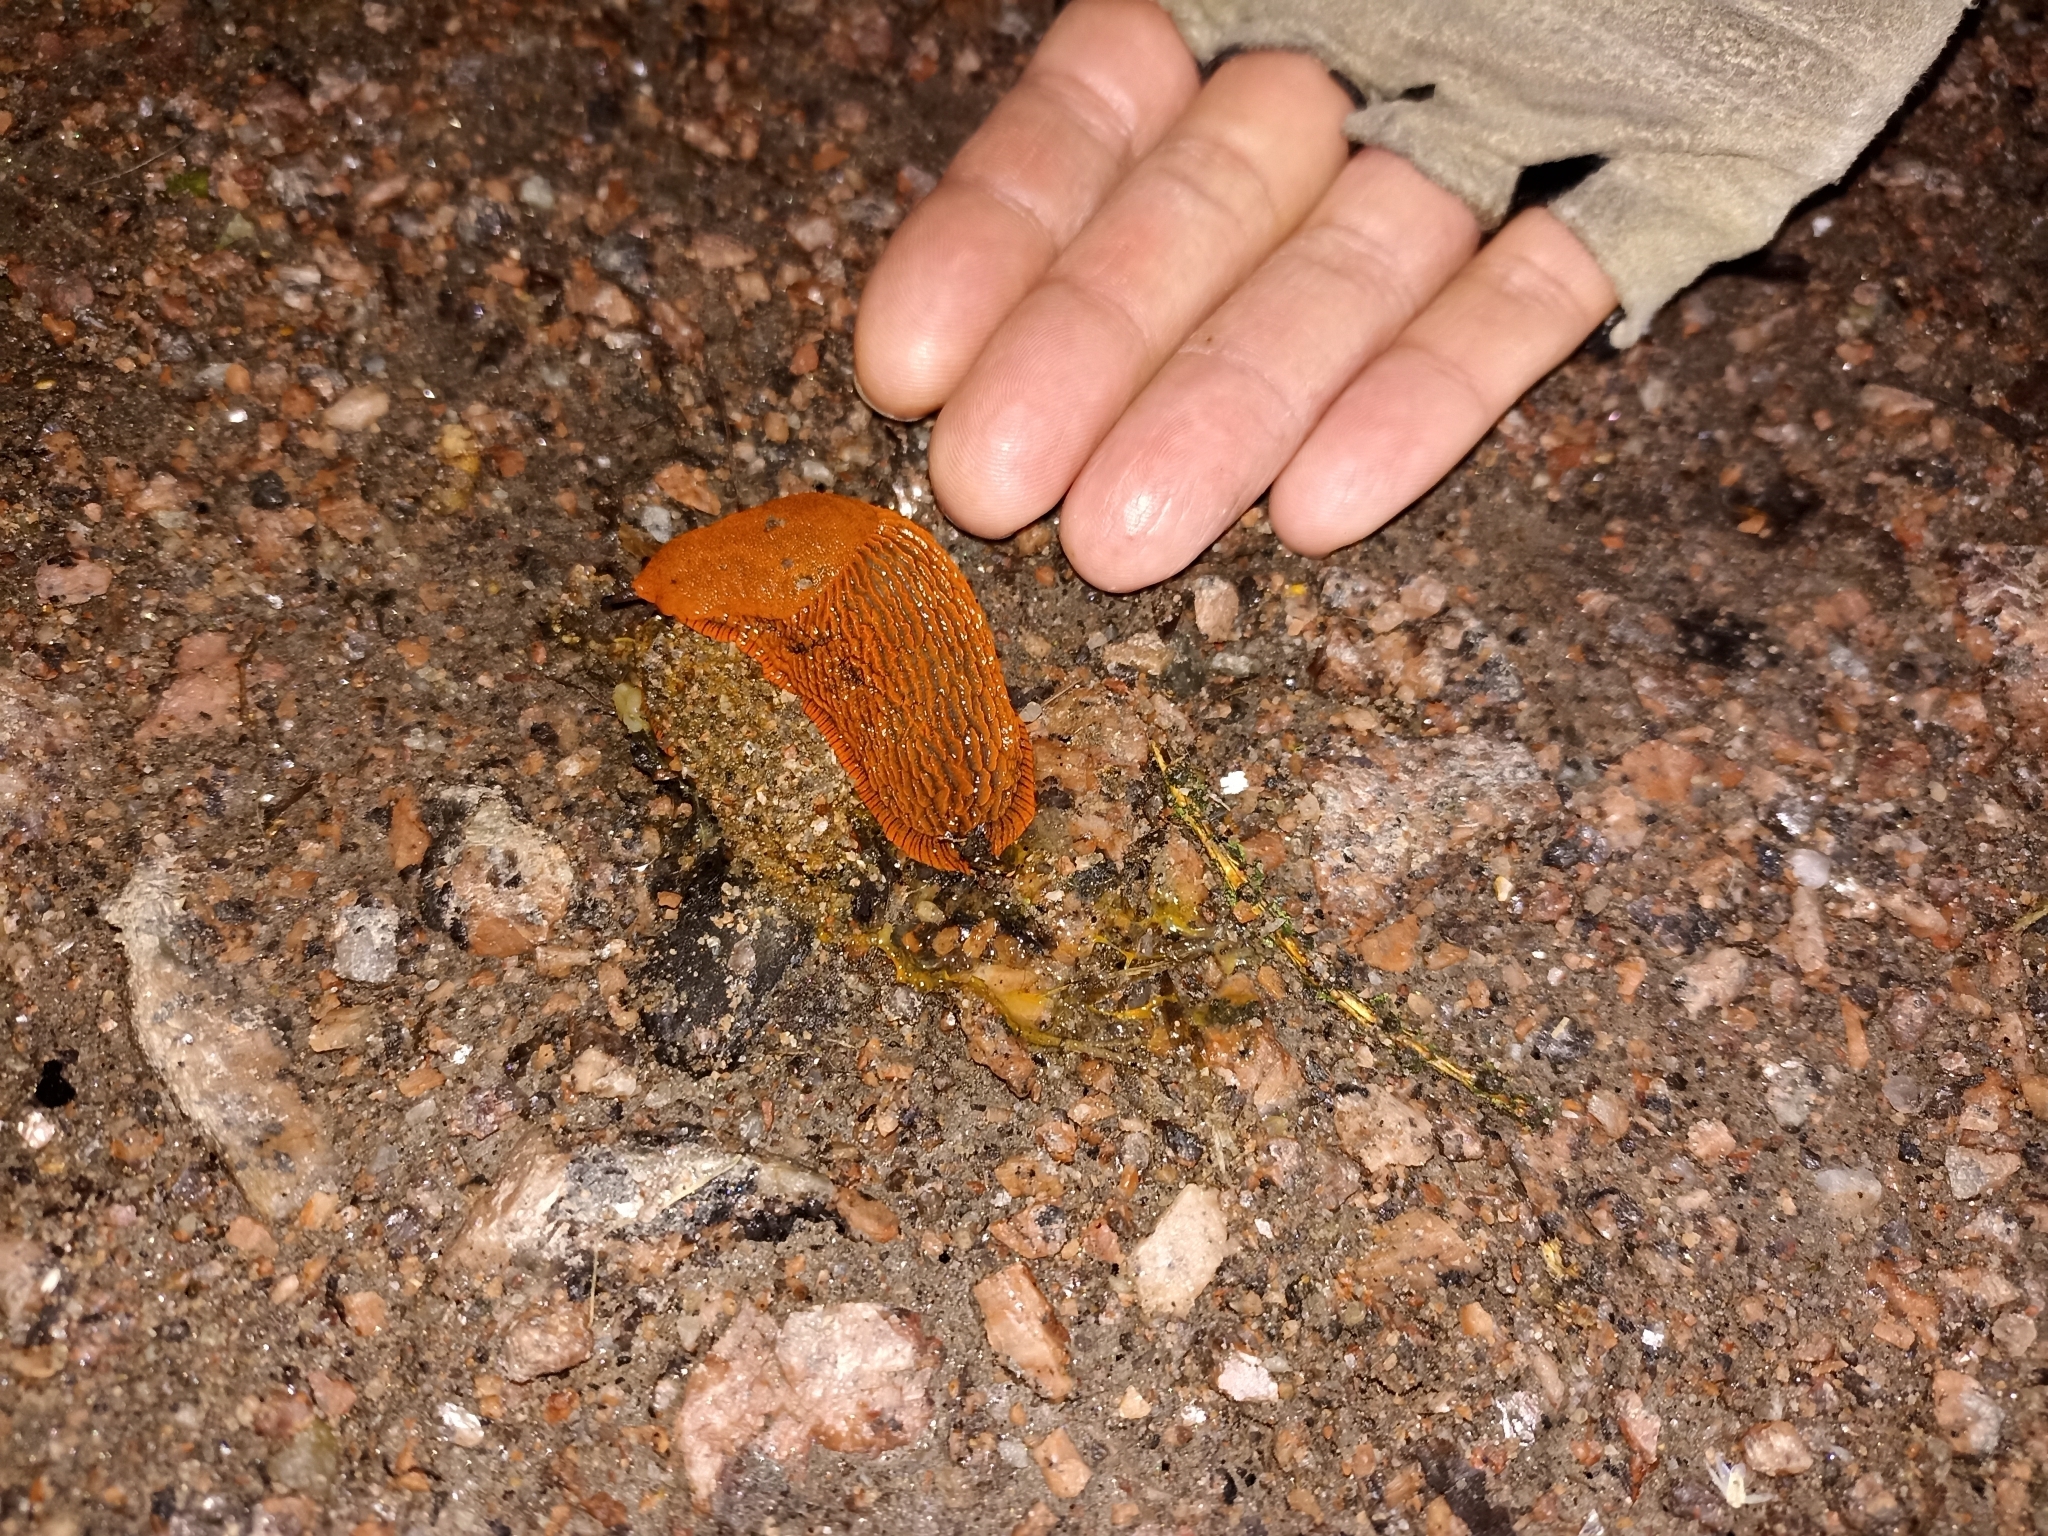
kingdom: Animalia
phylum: Mollusca
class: Gastropoda
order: Stylommatophora
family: Arionidae
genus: Arion
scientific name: Arion vulgaris
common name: Lusitanian slug
